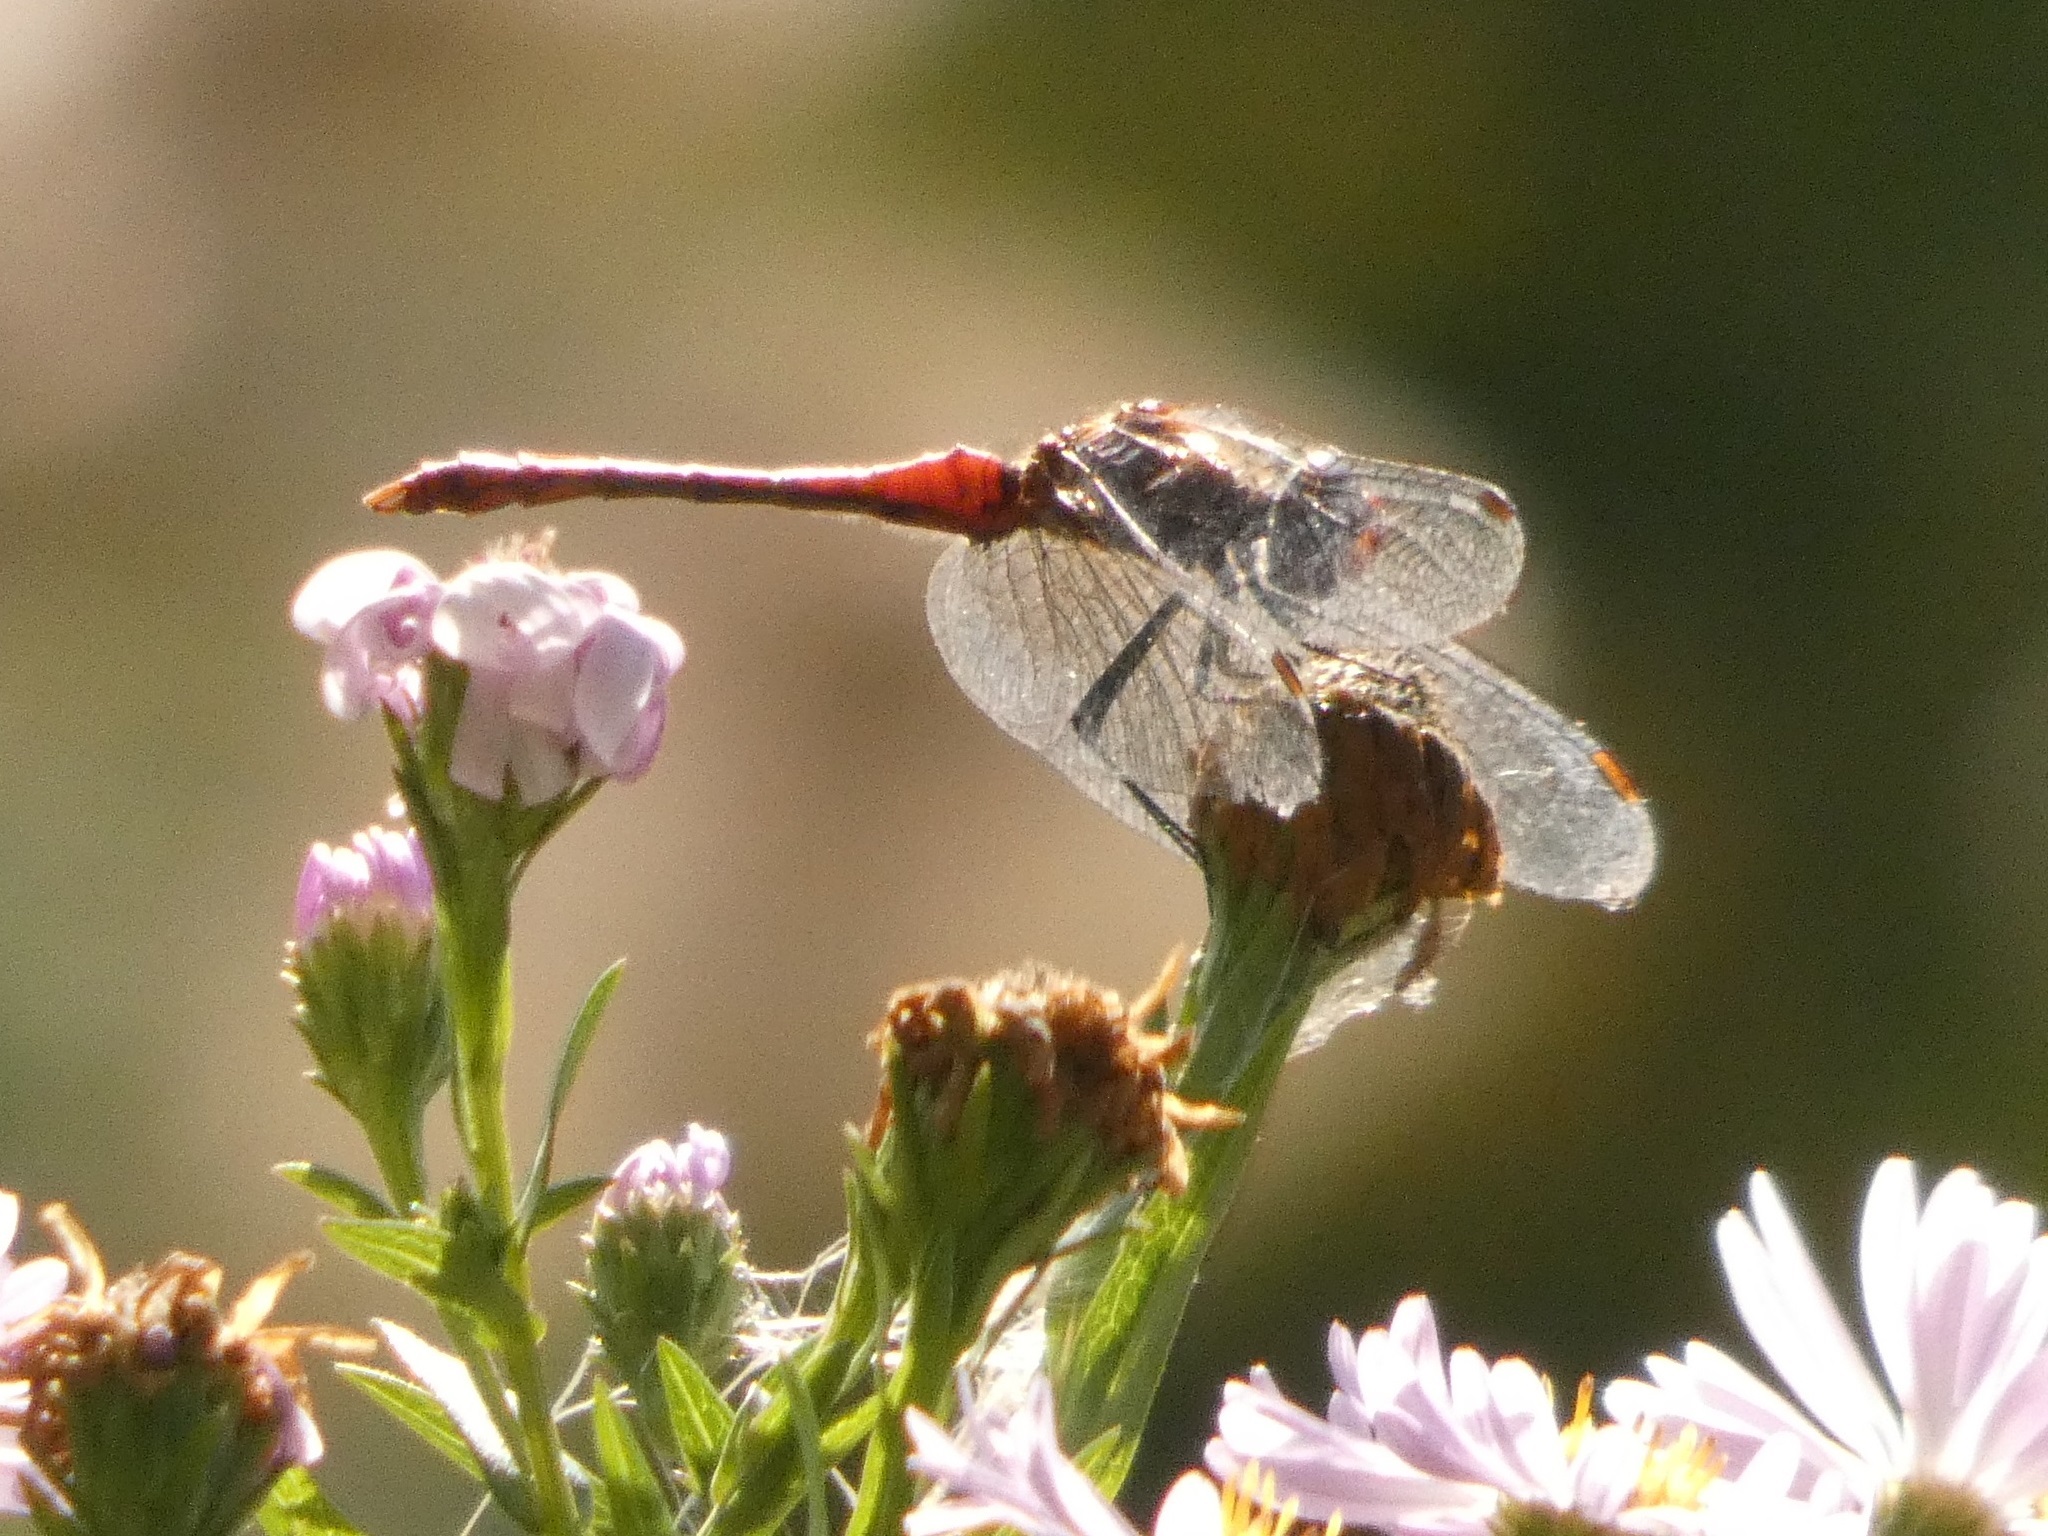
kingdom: Animalia
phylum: Arthropoda
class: Insecta
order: Odonata
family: Libellulidae
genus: Sympetrum
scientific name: Sympetrum sanguineum
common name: Ruddy darter
